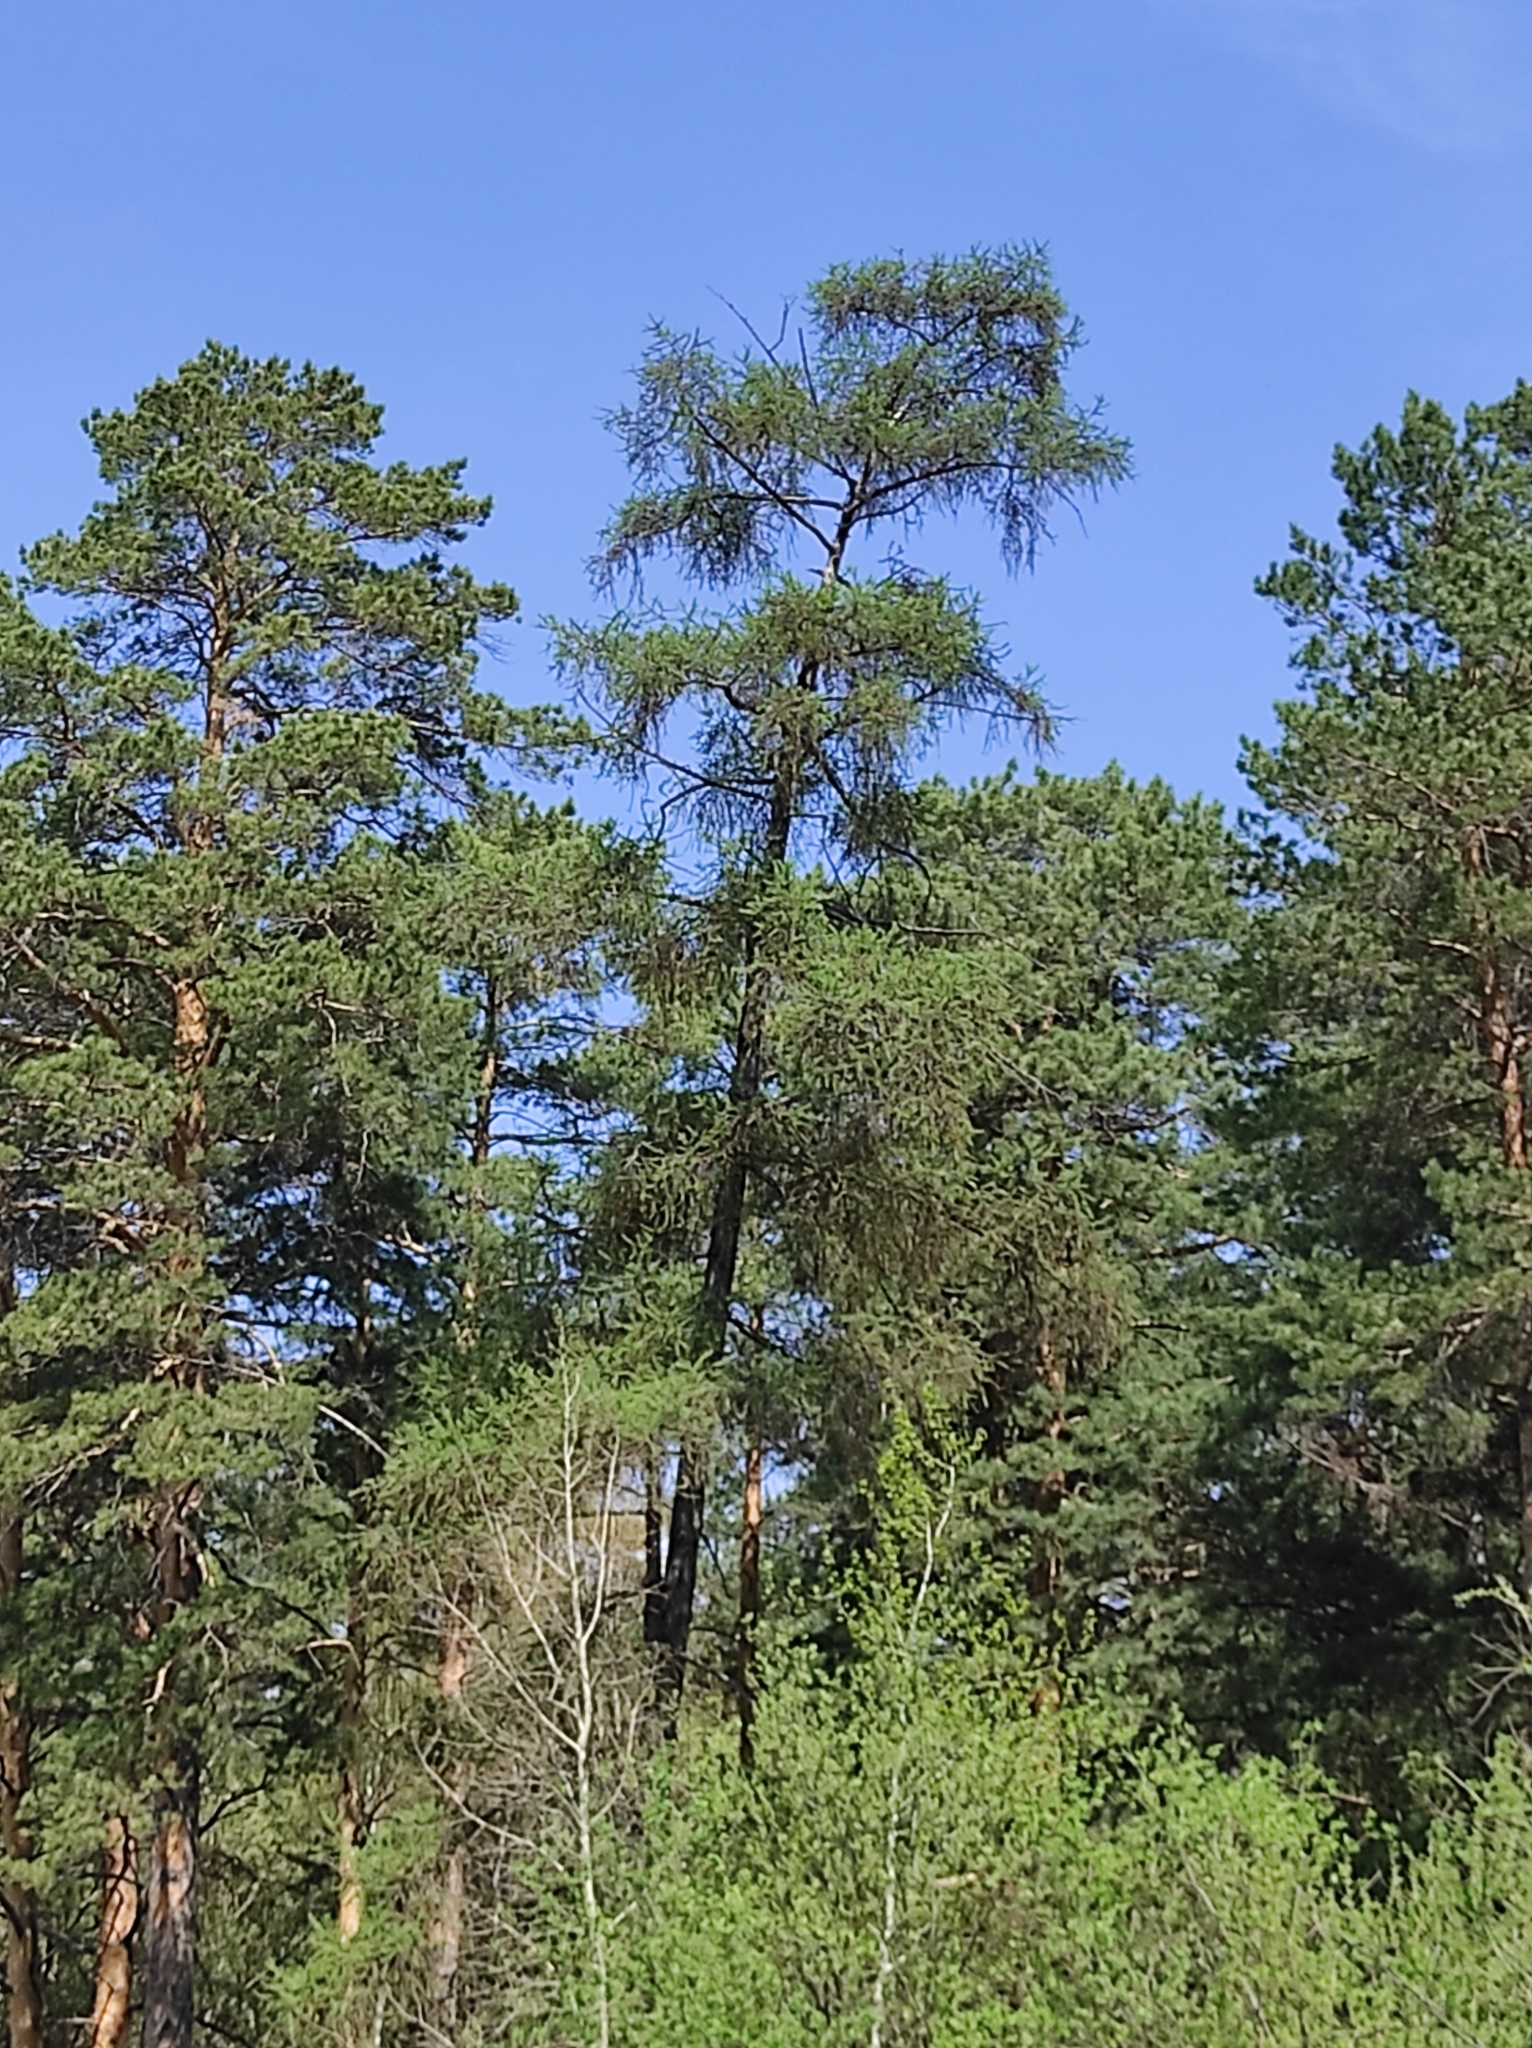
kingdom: Plantae
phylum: Tracheophyta
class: Pinopsida
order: Pinales
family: Pinaceae
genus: Larix
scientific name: Larix sibirica
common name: Siberian larch
